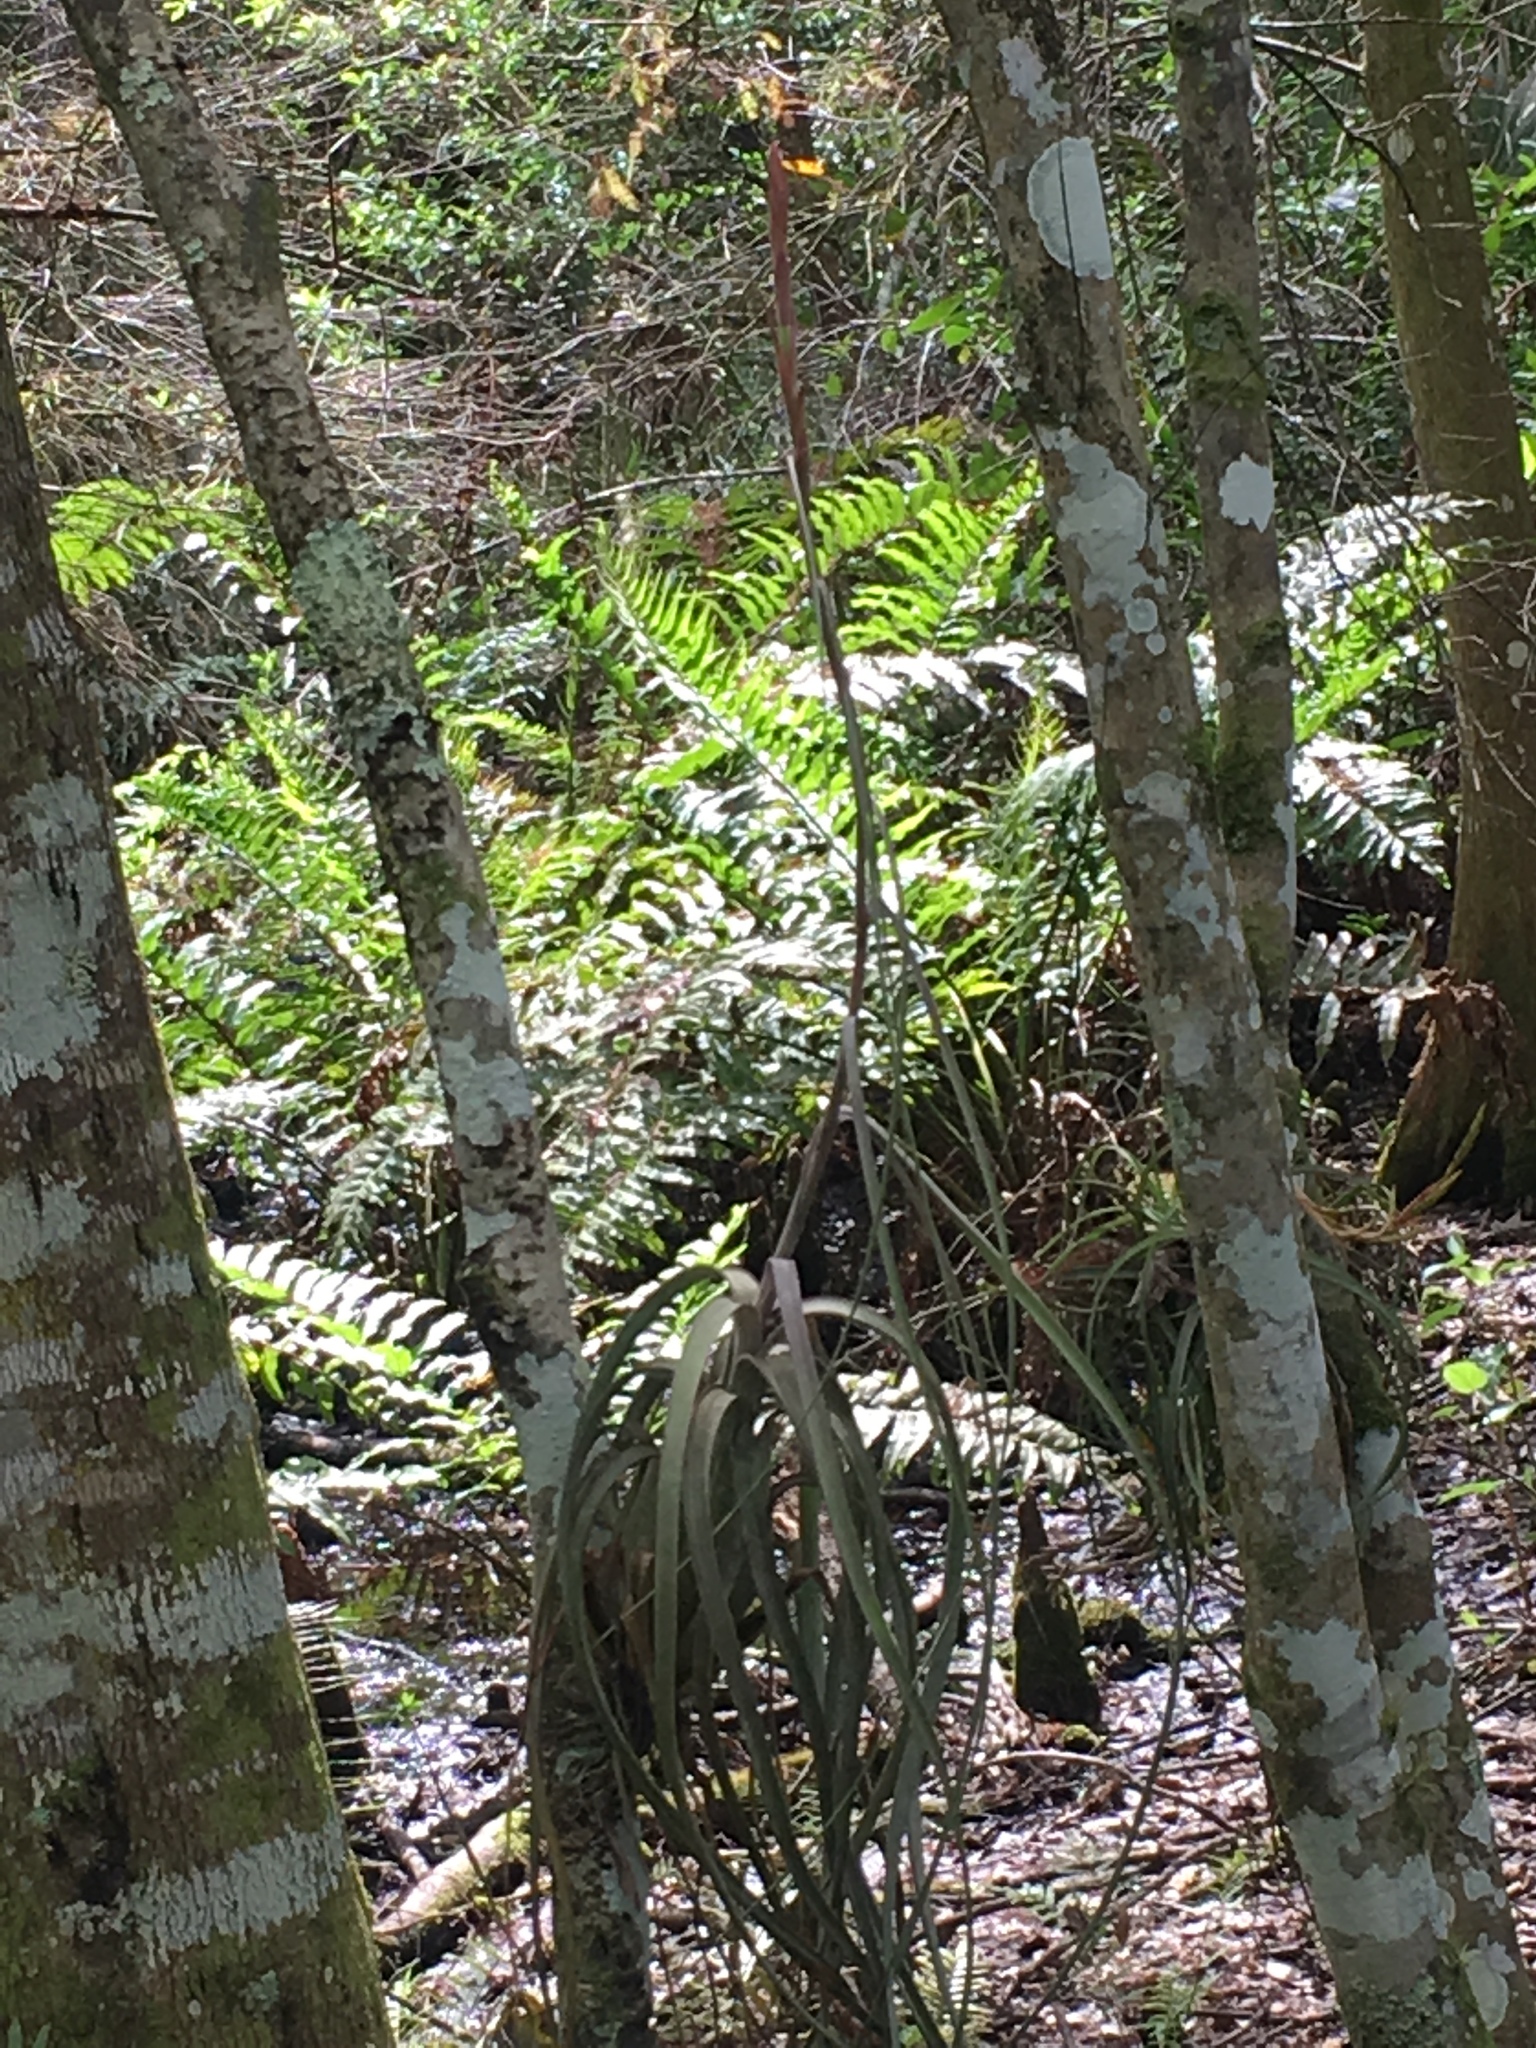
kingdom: Plantae
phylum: Tracheophyta
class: Liliopsida
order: Poales
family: Bromeliaceae
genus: Tillandsia
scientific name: Tillandsia balbisiana
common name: Northern needleleaf
